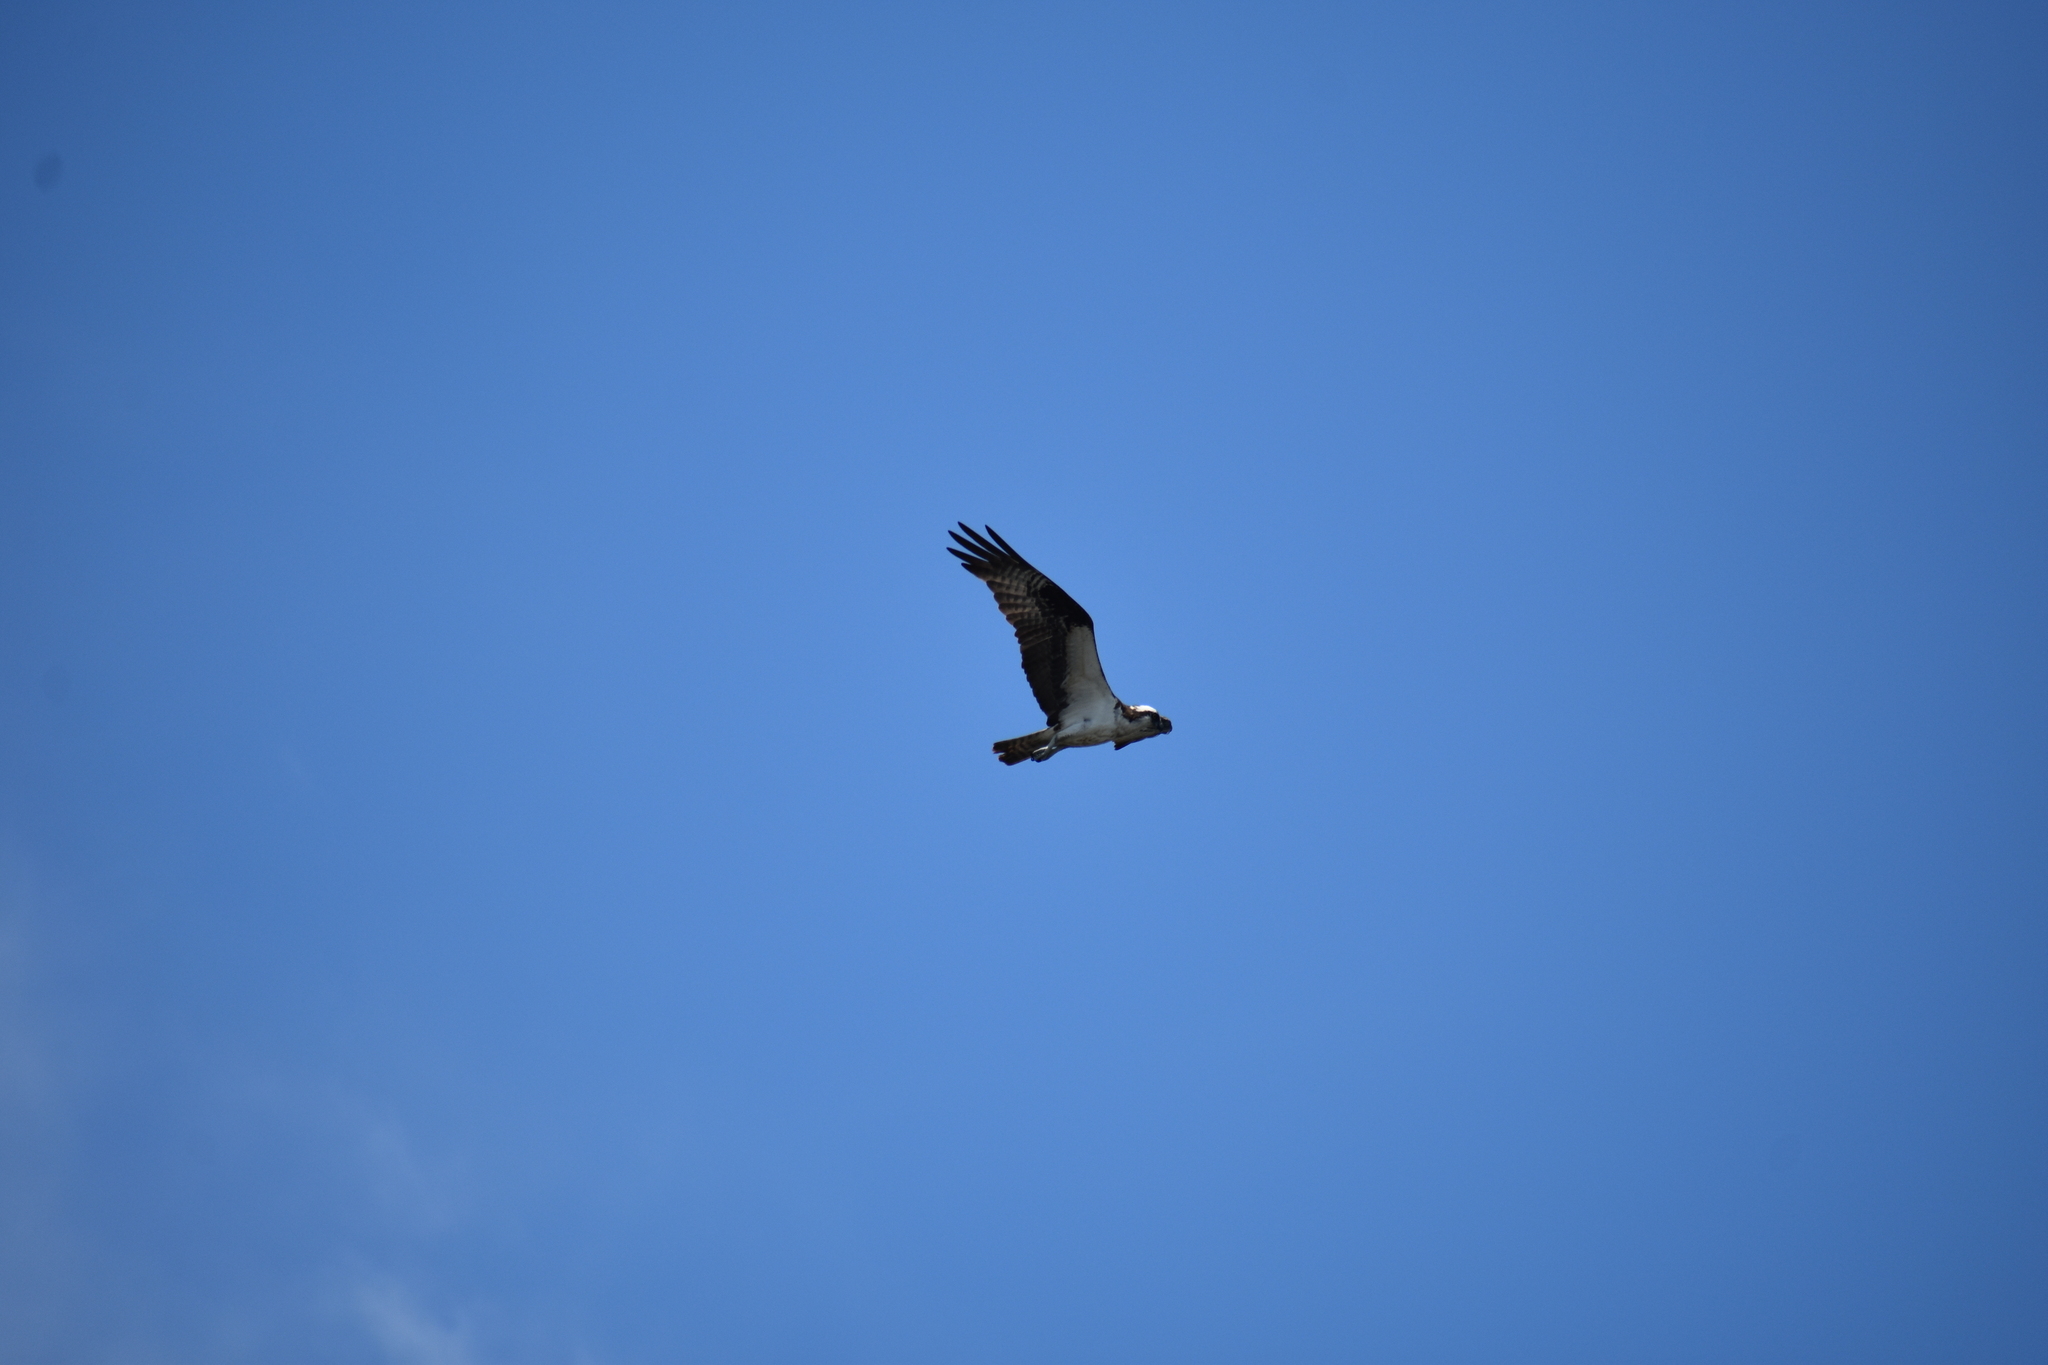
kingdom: Animalia
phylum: Chordata
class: Aves
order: Accipitriformes
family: Pandionidae
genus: Pandion
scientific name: Pandion haliaetus
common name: Osprey
